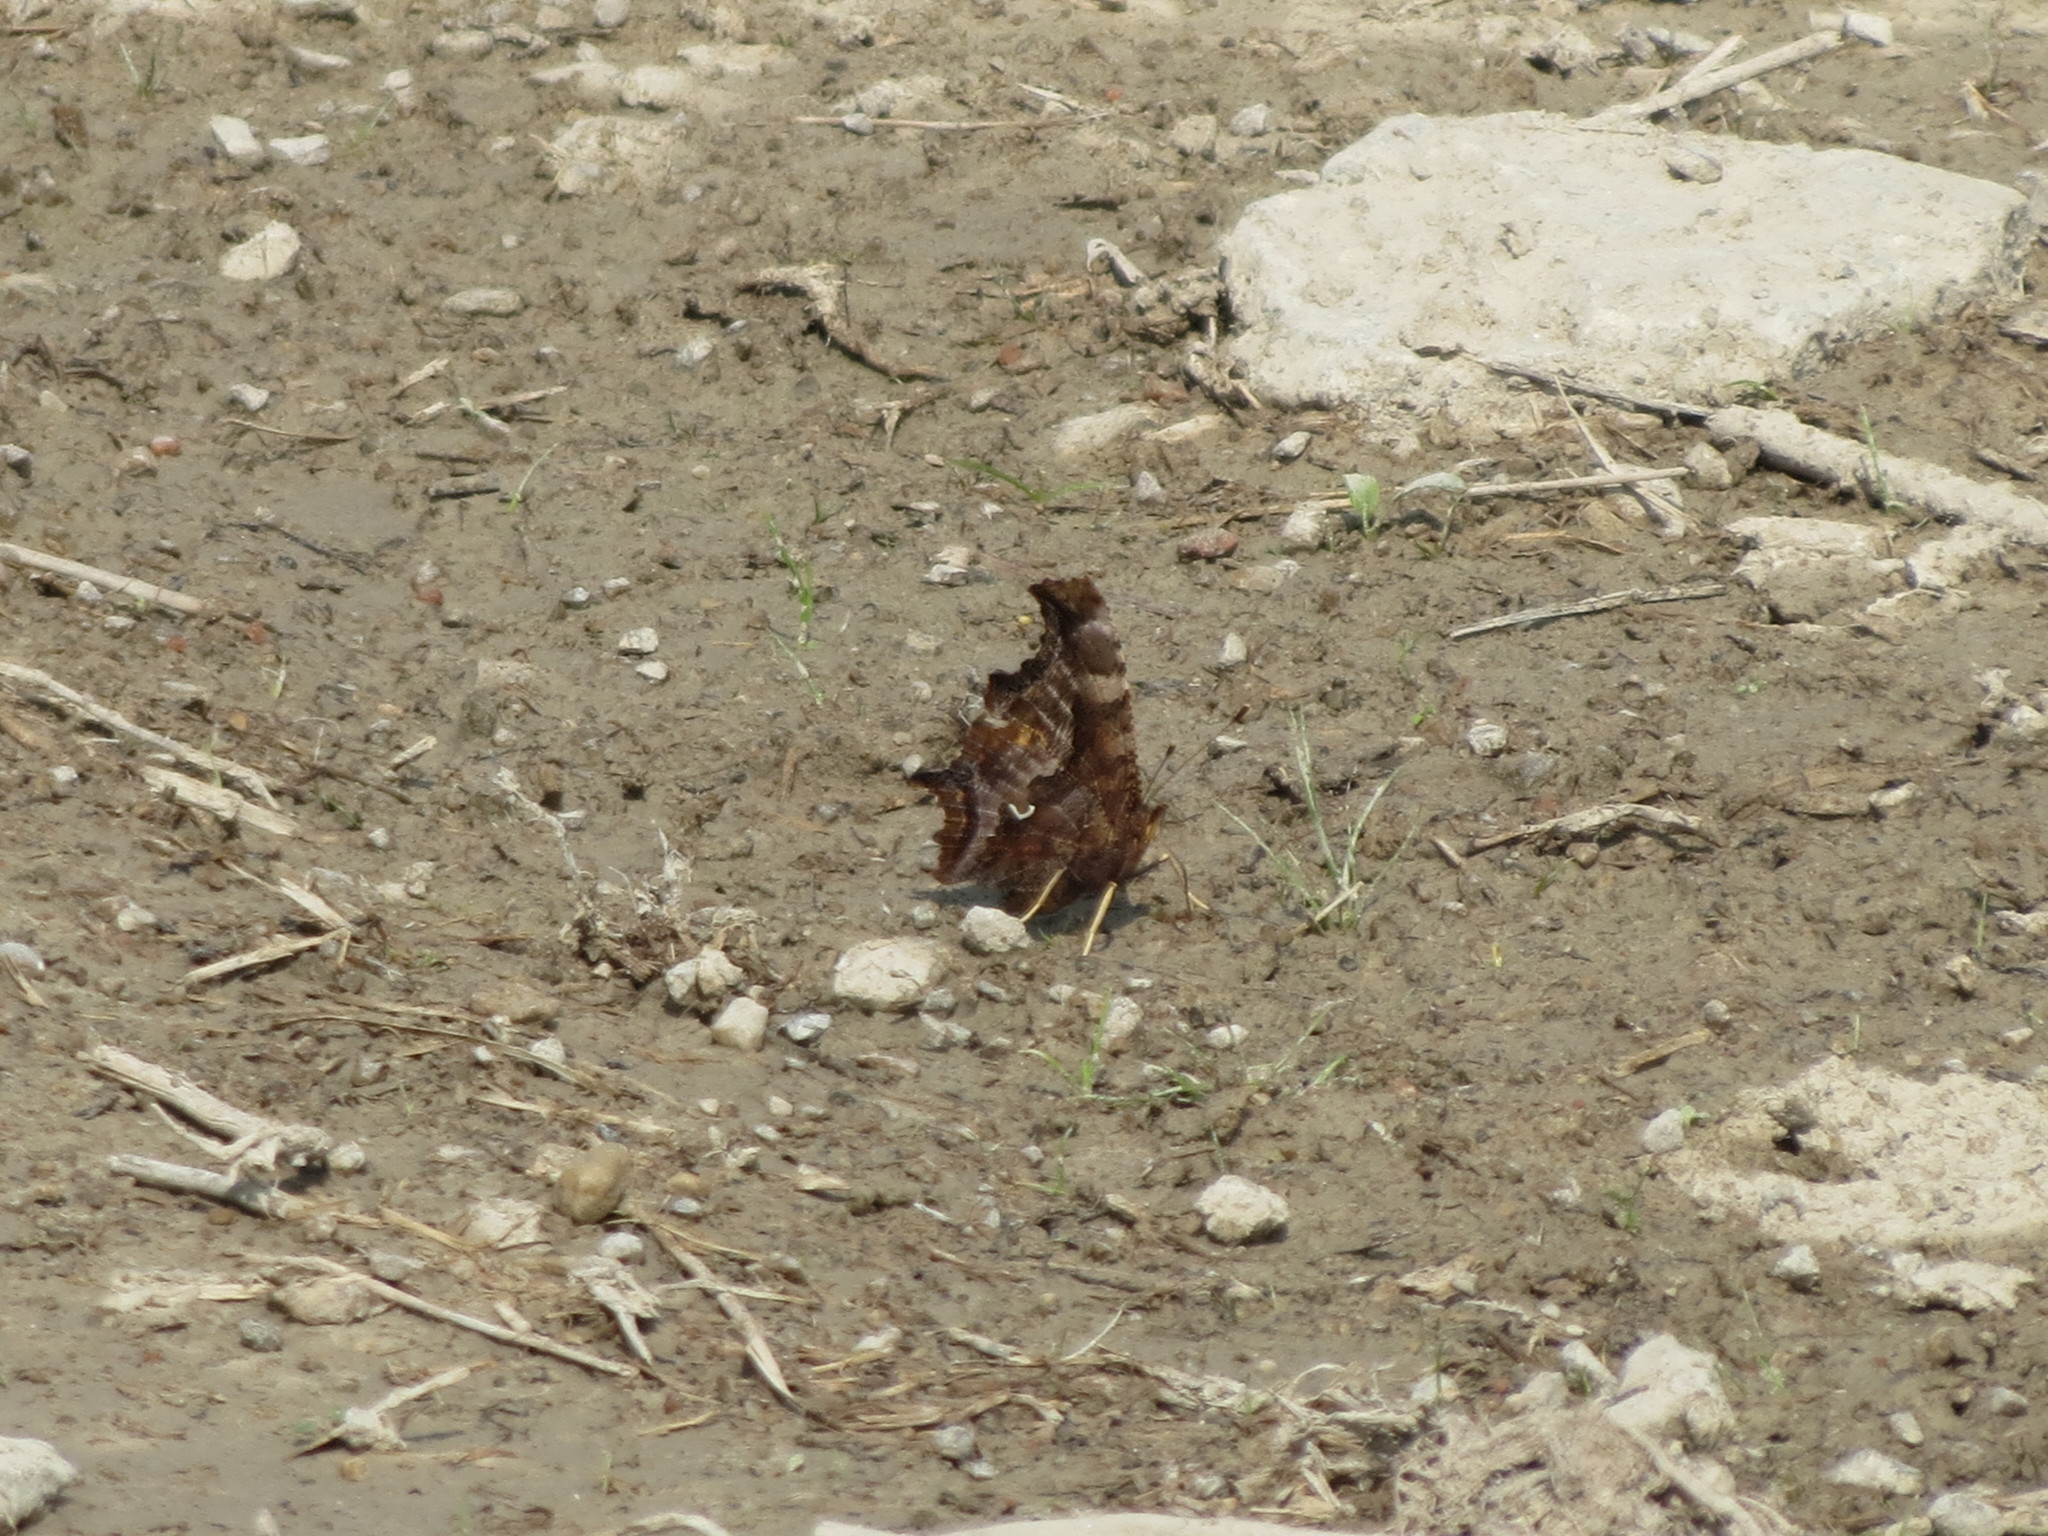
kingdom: Animalia
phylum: Arthropoda
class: Insecta
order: Lepidoptera
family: Nymphalidae
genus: Polygonia
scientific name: Polygonia comma
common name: Eastern comma
